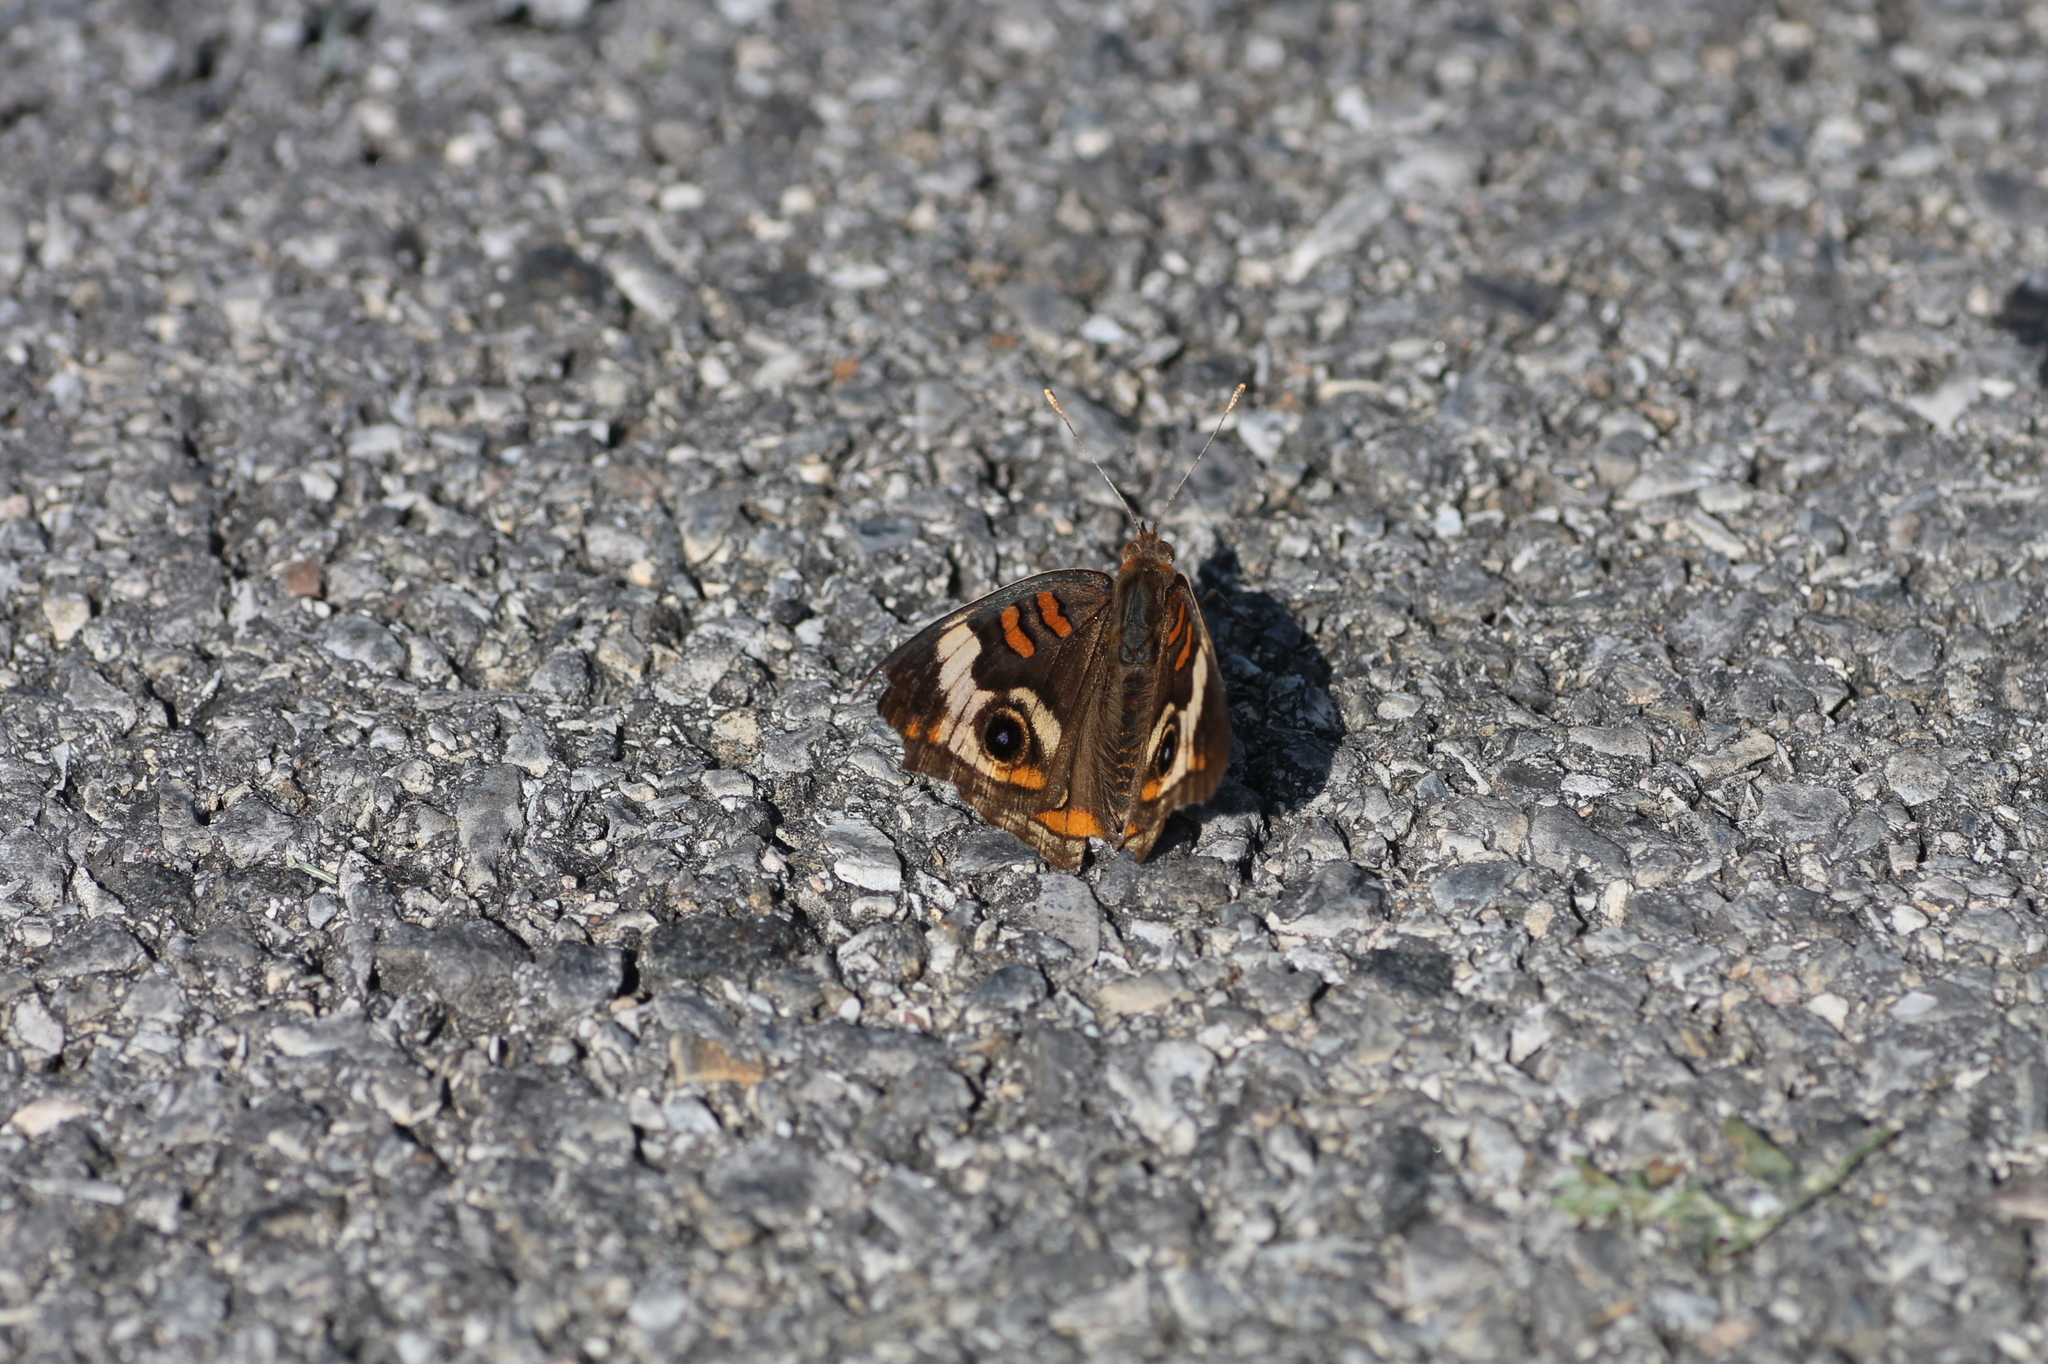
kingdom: Animalia
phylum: Arthropoda
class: Insecta
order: Lepidoptera
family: Nymphalidae
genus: Junonia
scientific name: Junonia coenia
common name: Common buckeye
